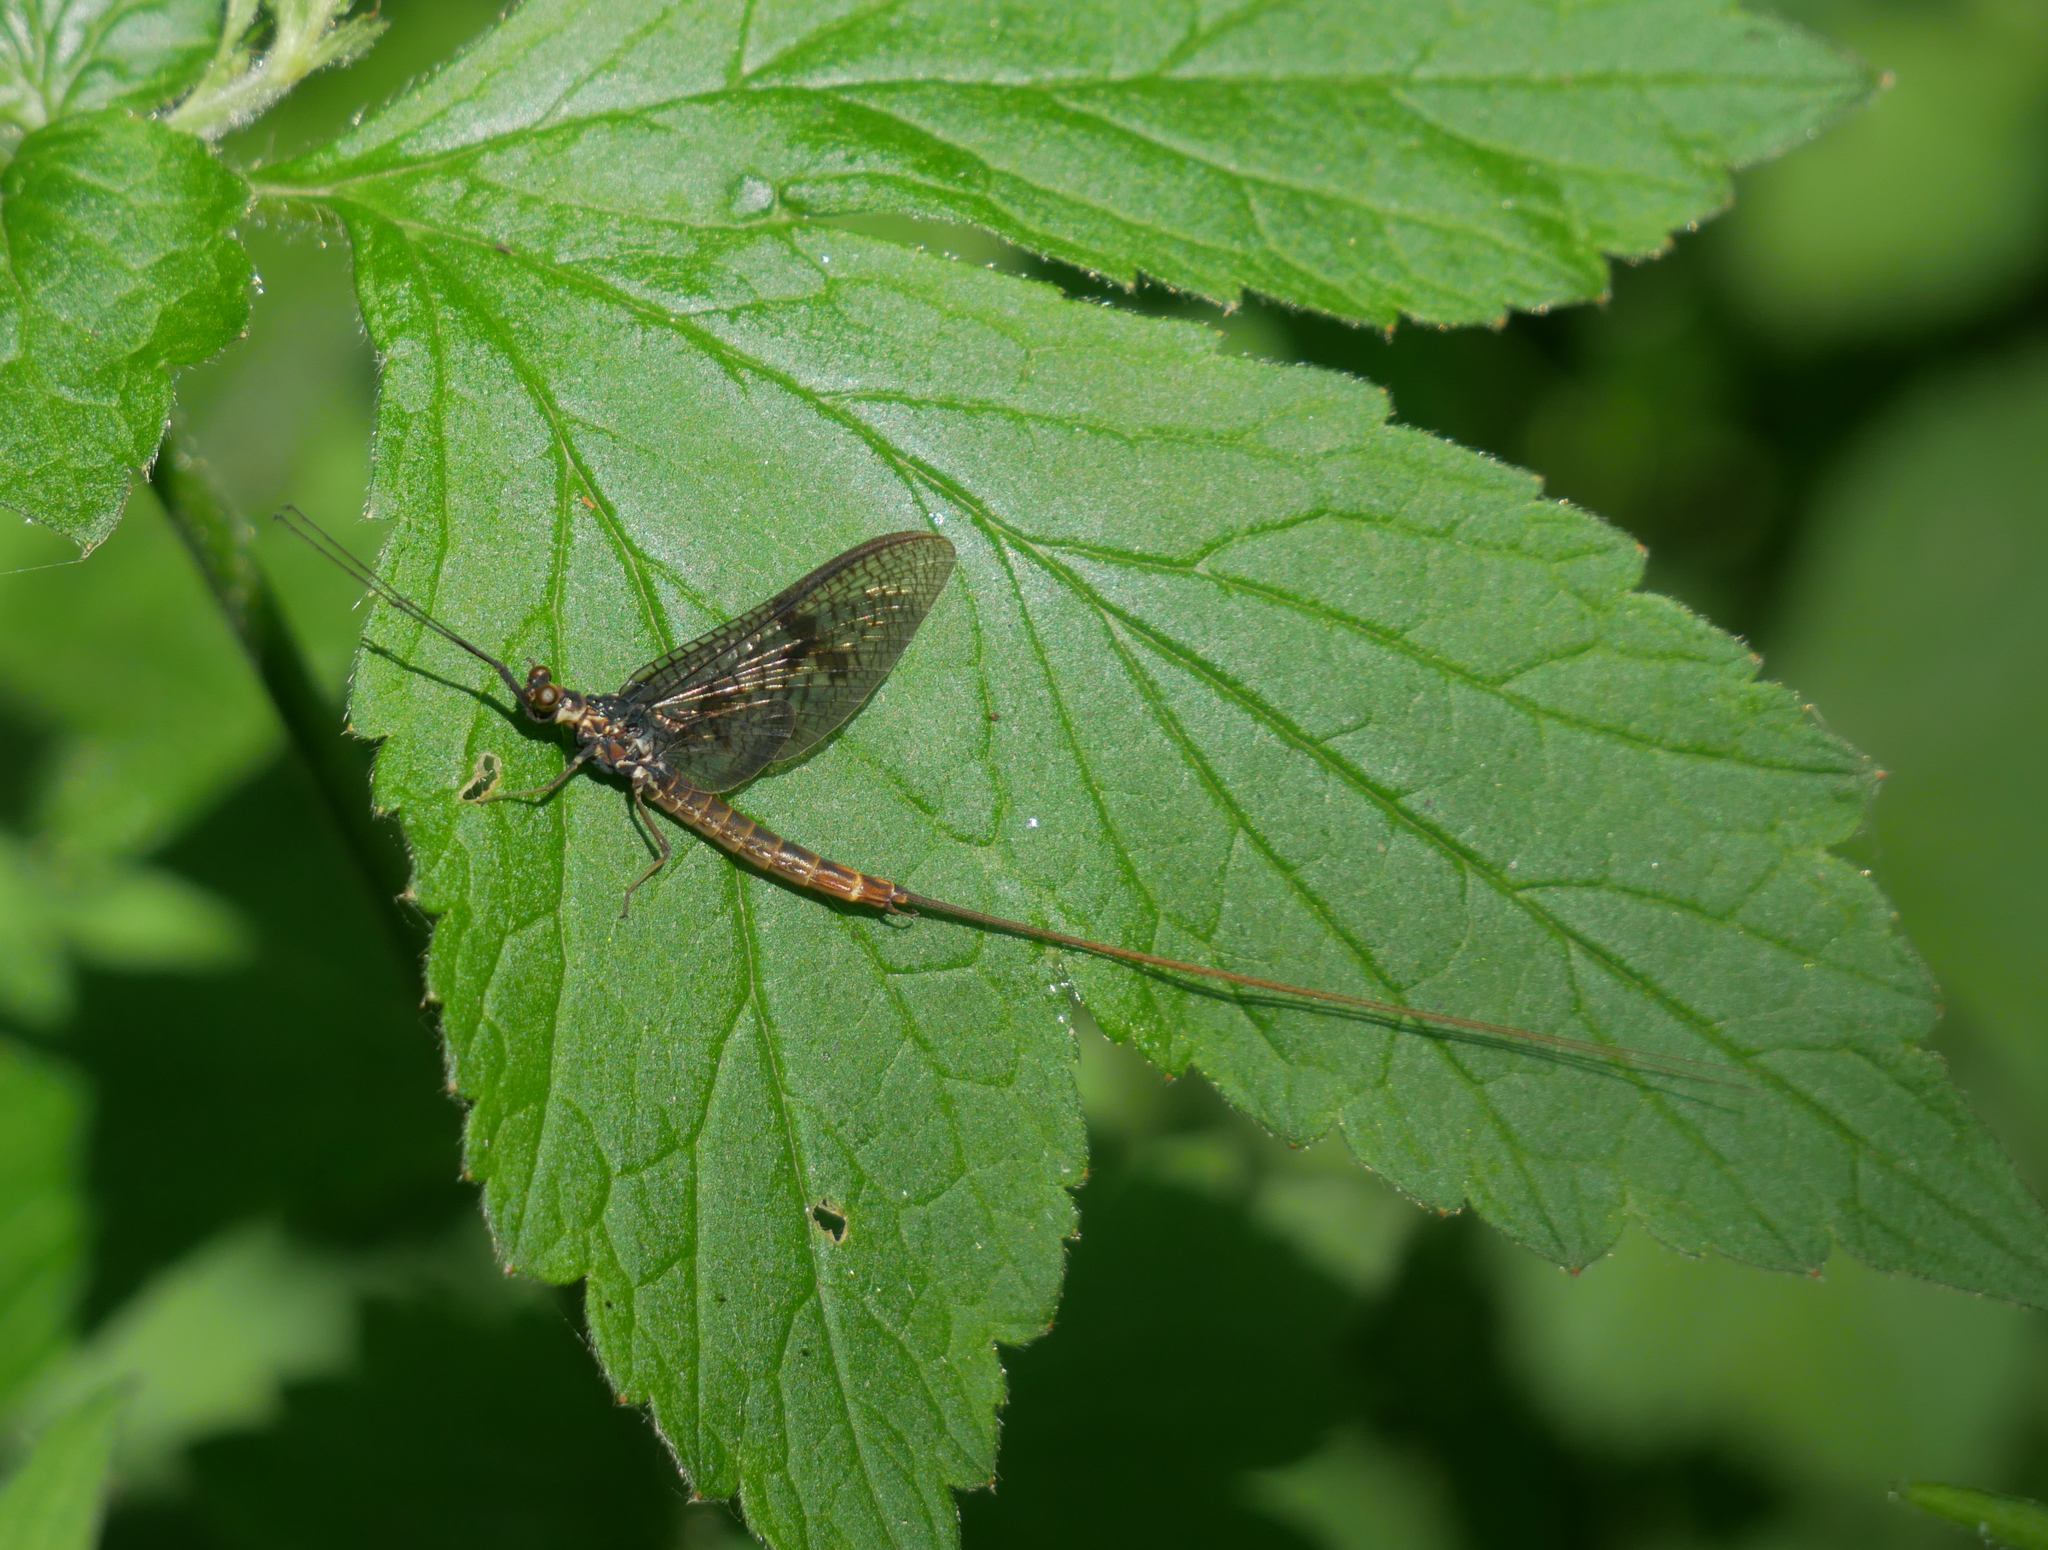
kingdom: Animalia
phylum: Arthropoda
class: Insecta
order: Ephemeroptera
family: Ephemeridae
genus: Ephemera
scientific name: Ephemera vulgata
